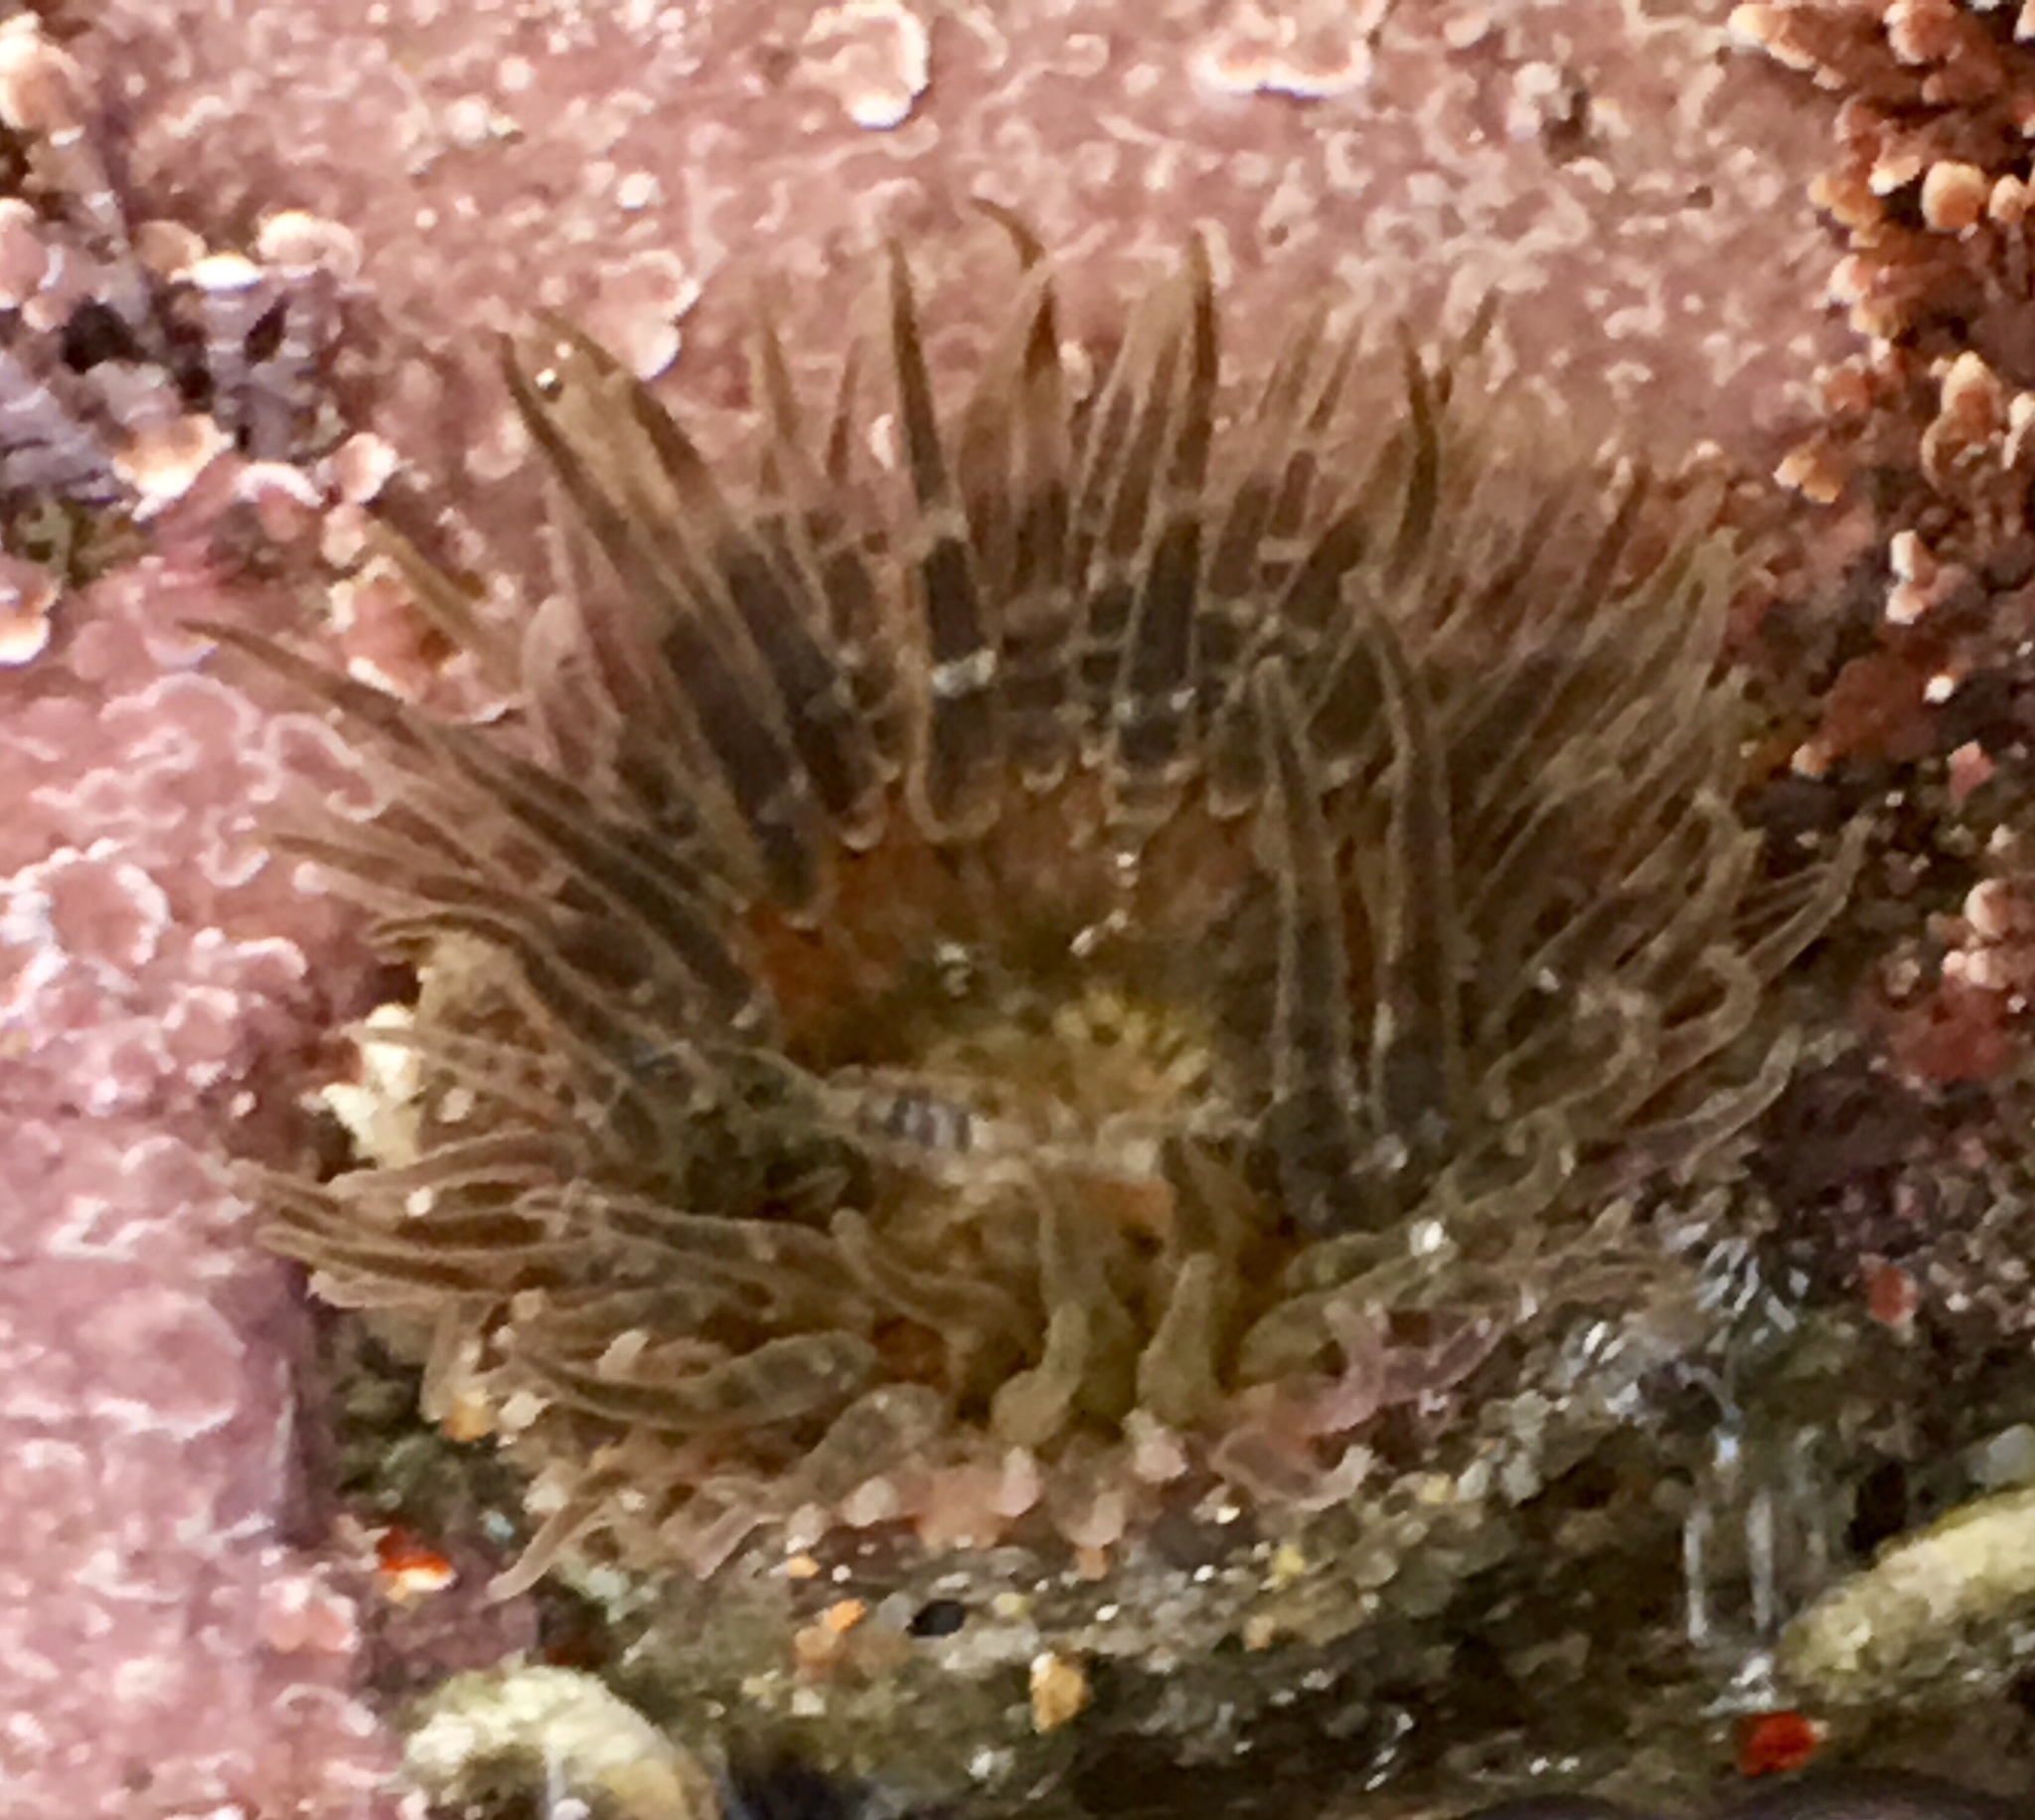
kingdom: Animalia
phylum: Cnidaria
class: Anthozoa
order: Actiniaria
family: Actiniidae
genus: Anthopleura
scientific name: Anthopleura artemisia
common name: Buried sea anemone
